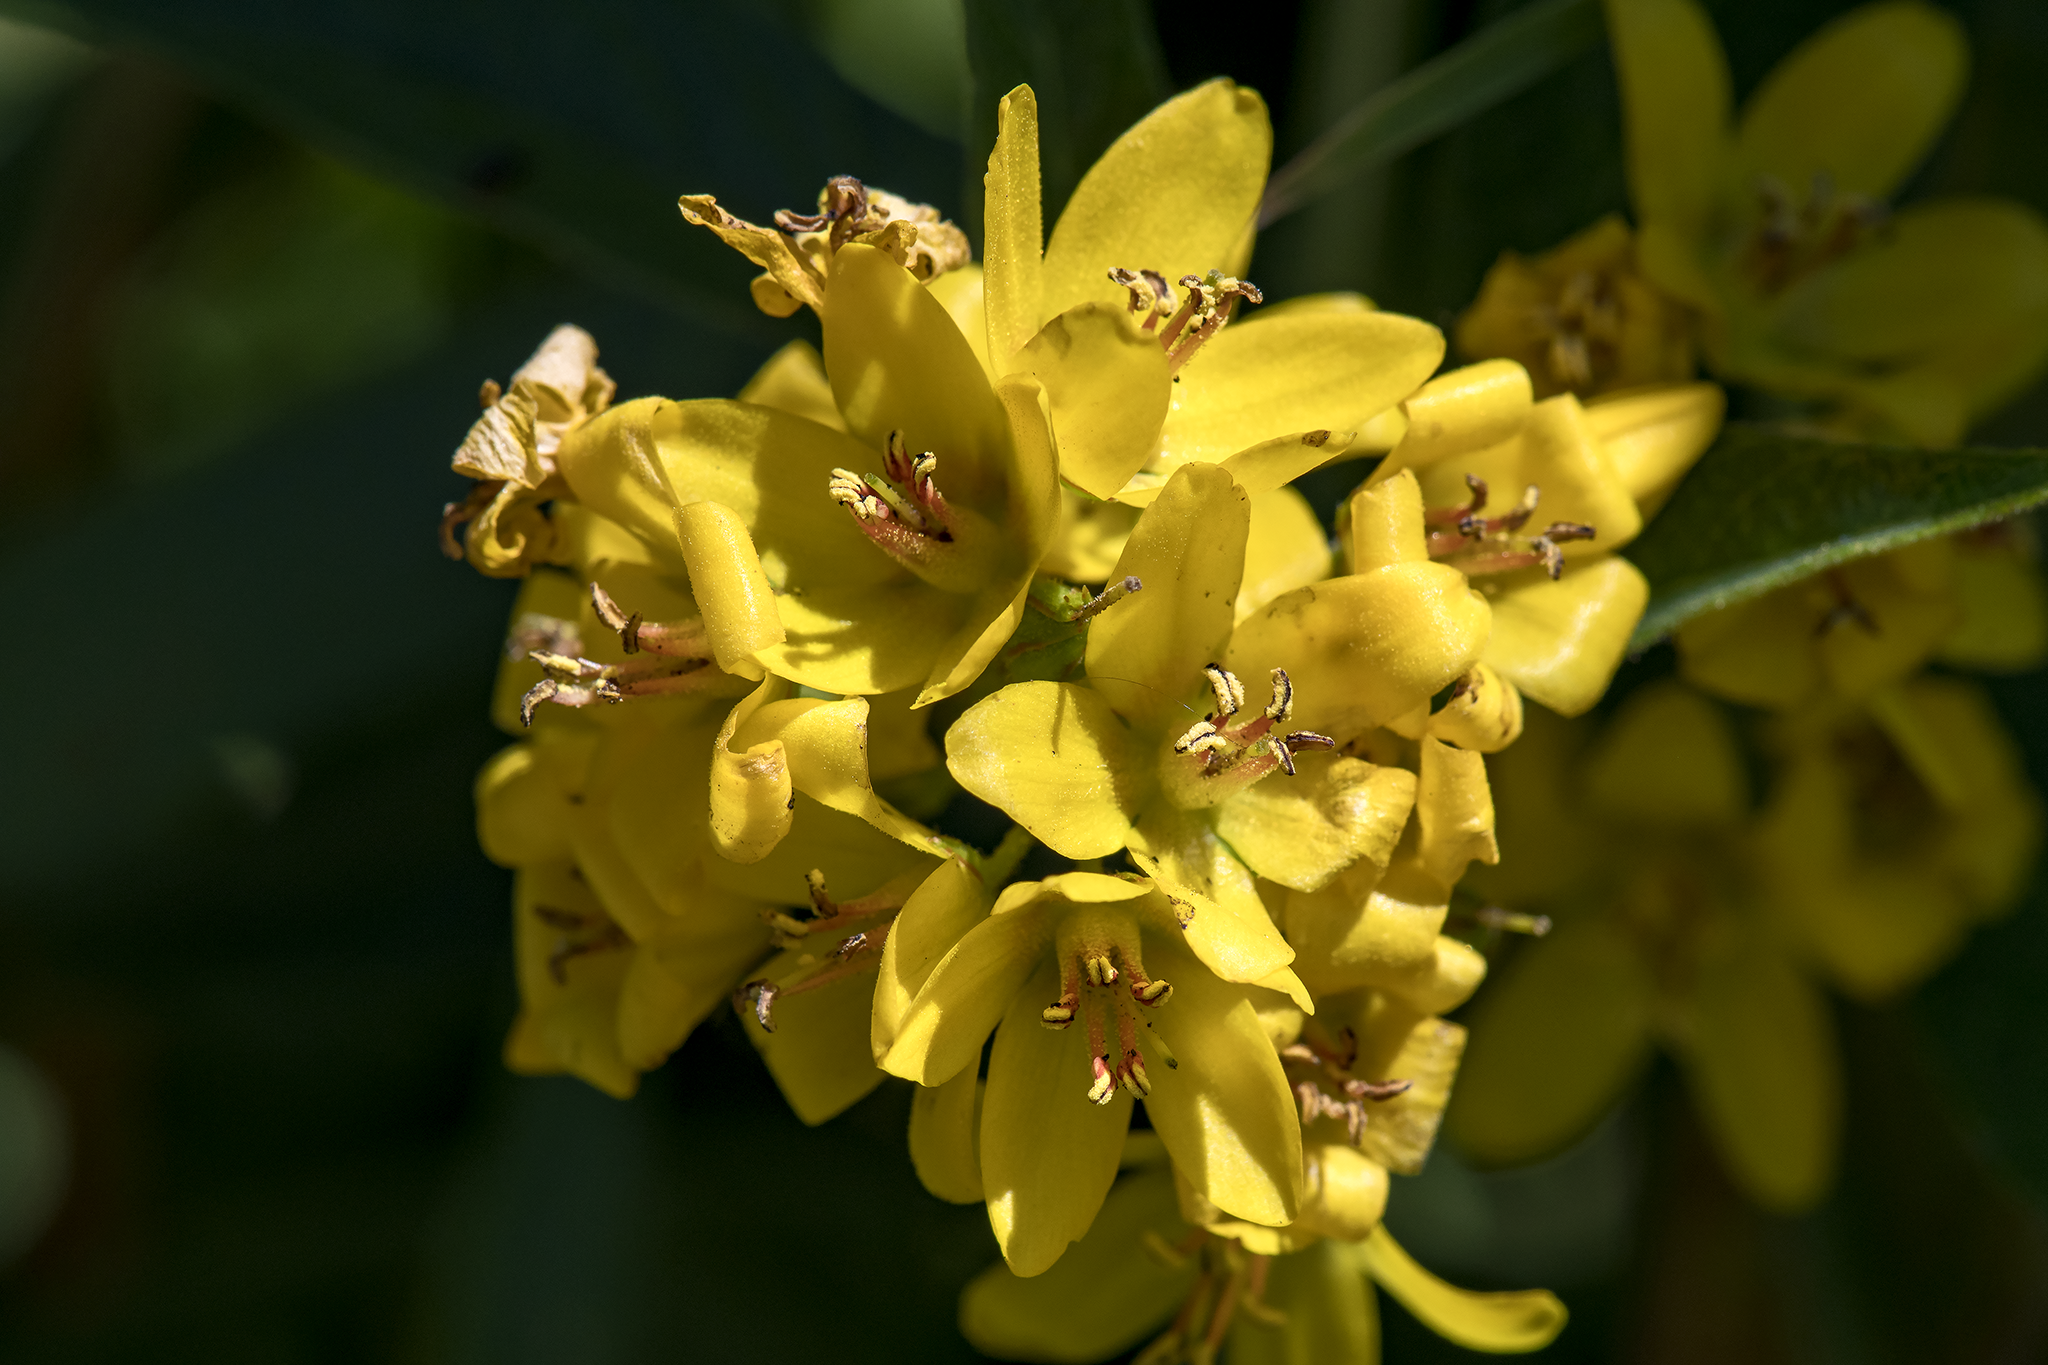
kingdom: Plantae
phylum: Tracheophyta
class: Magnoliopsida
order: Ericales
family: Primulaceae
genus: Lysimachia
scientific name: Lysimachia vulgaris
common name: Yellow loosestrife
